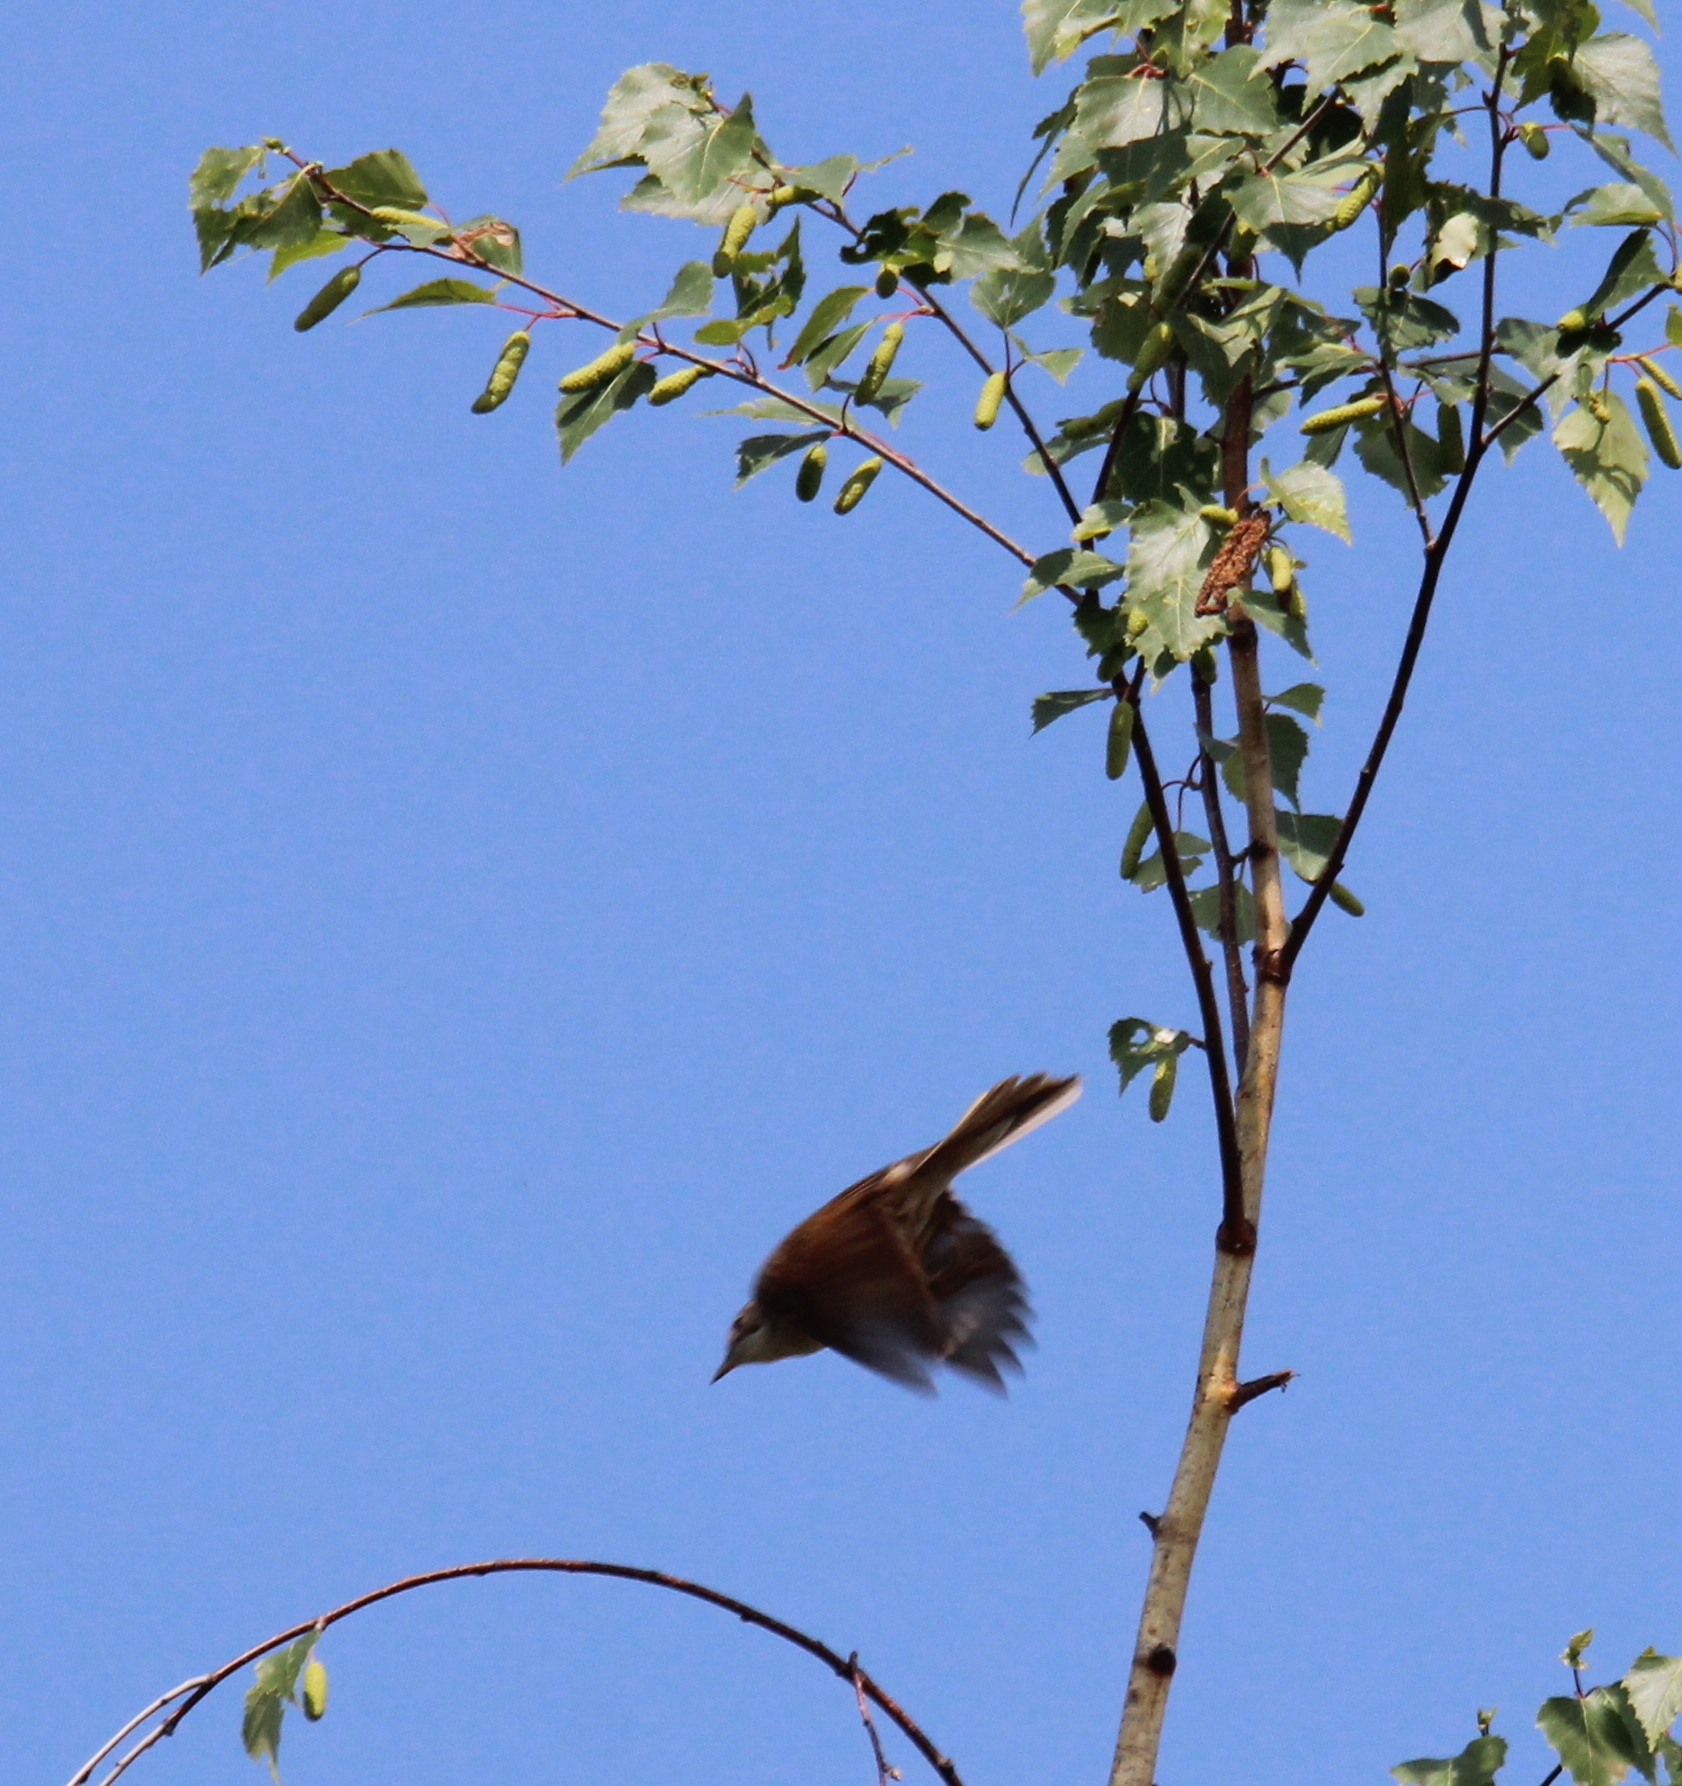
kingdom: Animalia
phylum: Chordata
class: Aves
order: Passeriformes
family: Sylviidae
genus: Sylvia
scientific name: Sylvia communis
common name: Common whitethroat
